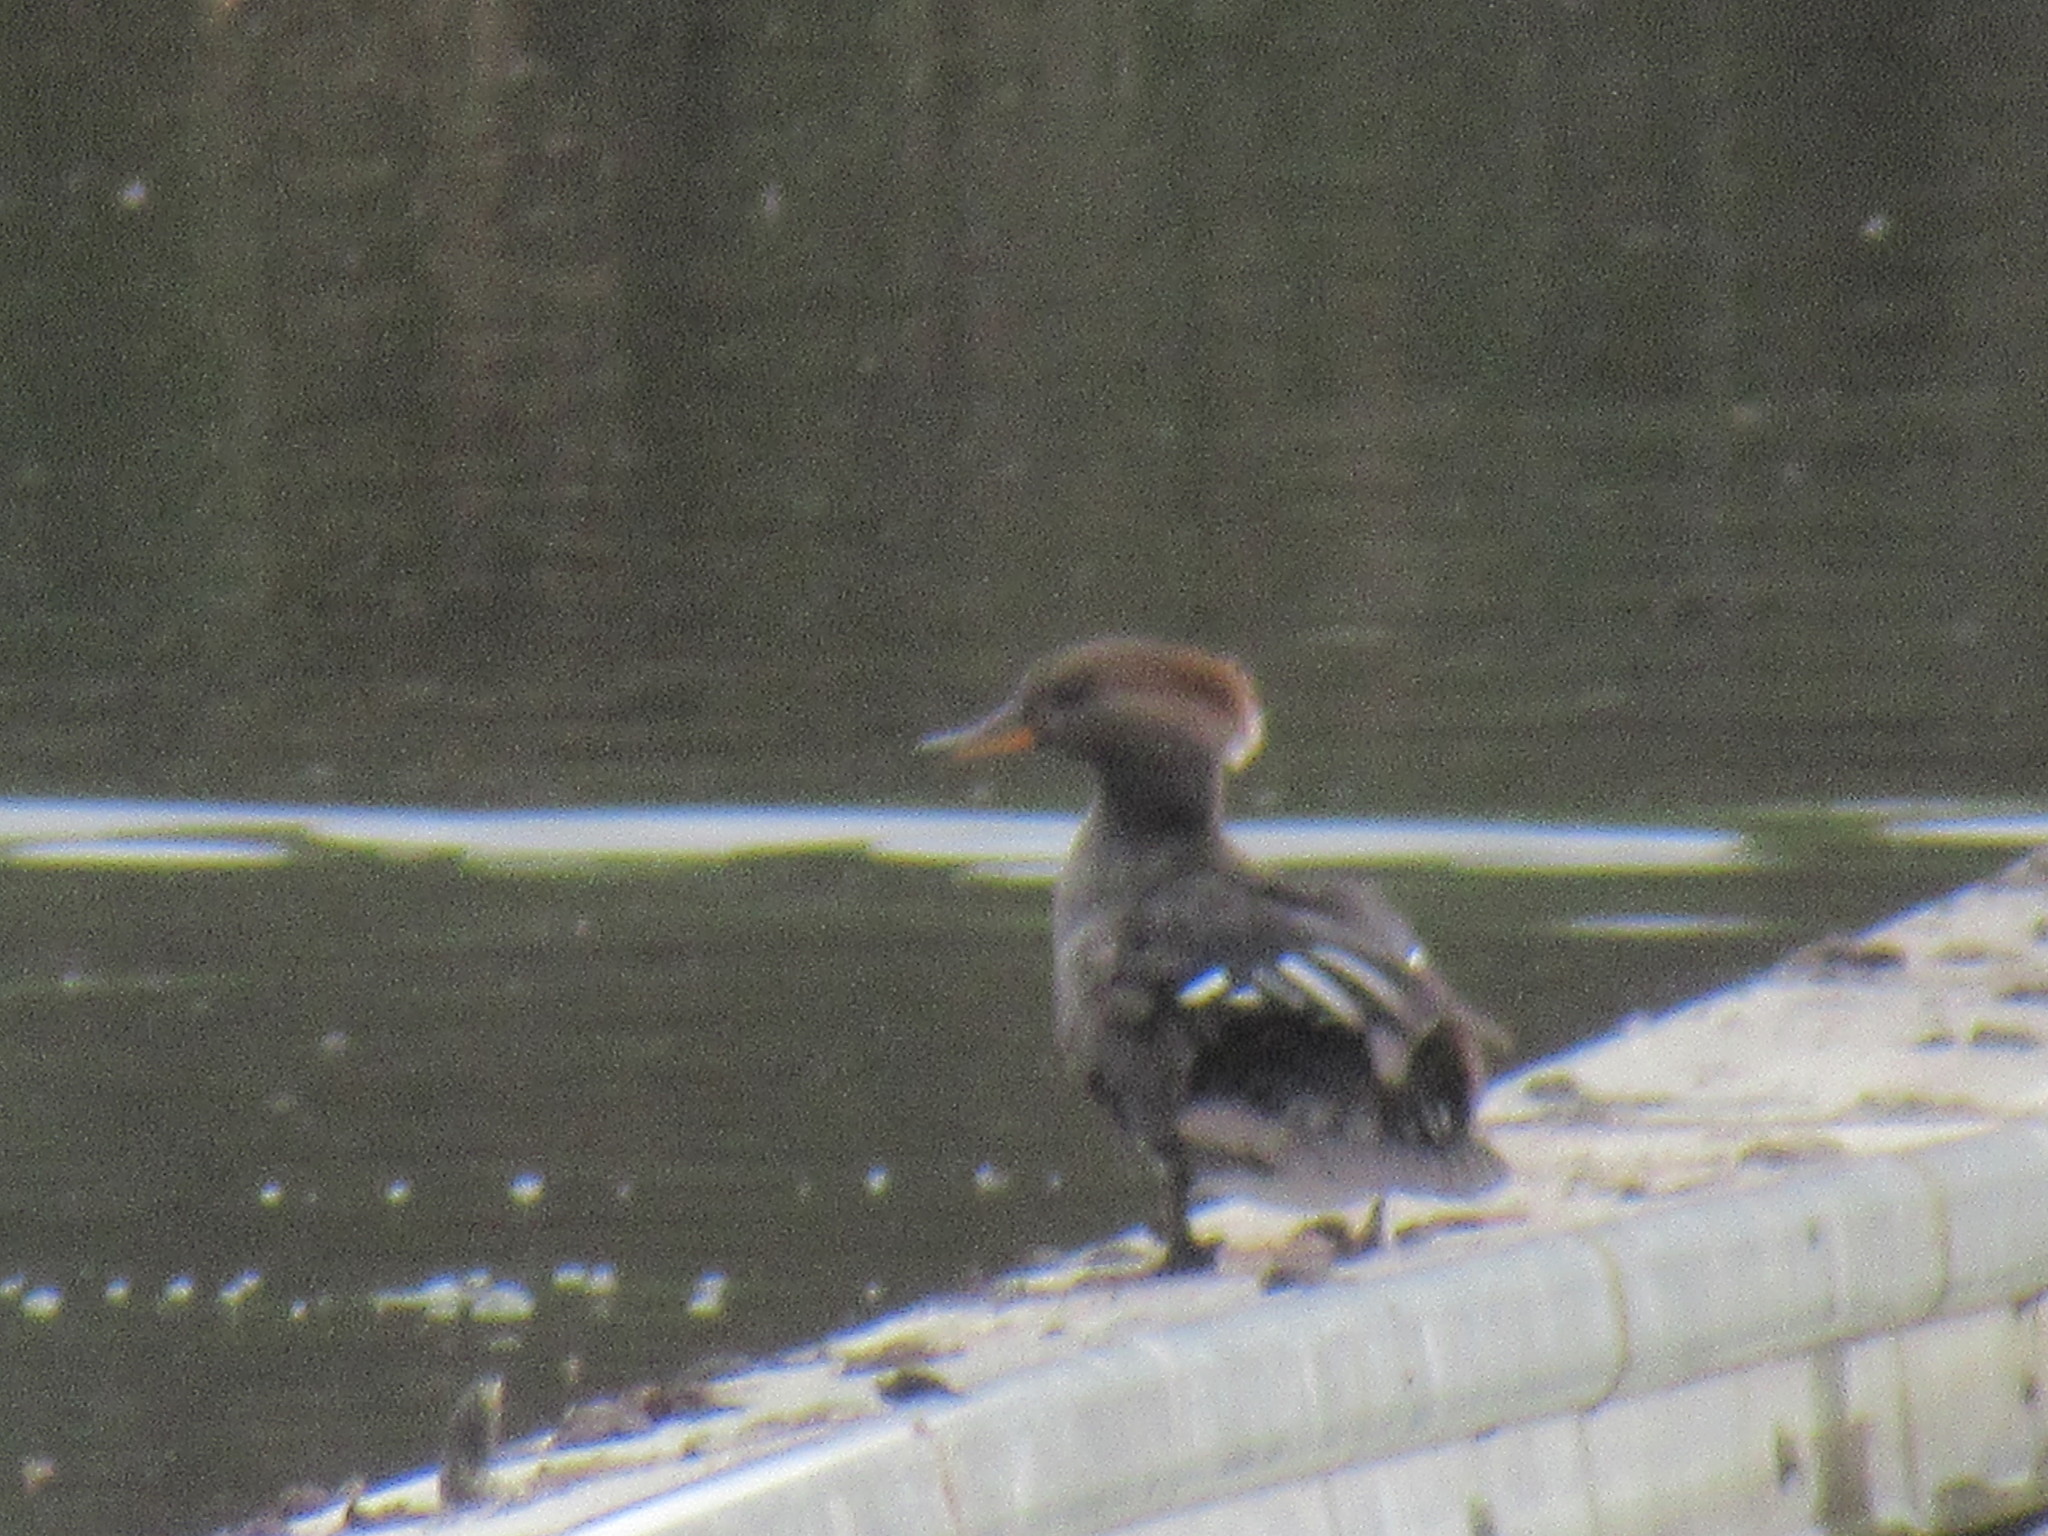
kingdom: Animalia
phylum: Chordata
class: Aves
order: Anseriformes
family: Anatidae
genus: Lophodytes
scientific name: Lophodytes cucullatus
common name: Hooded merganser
